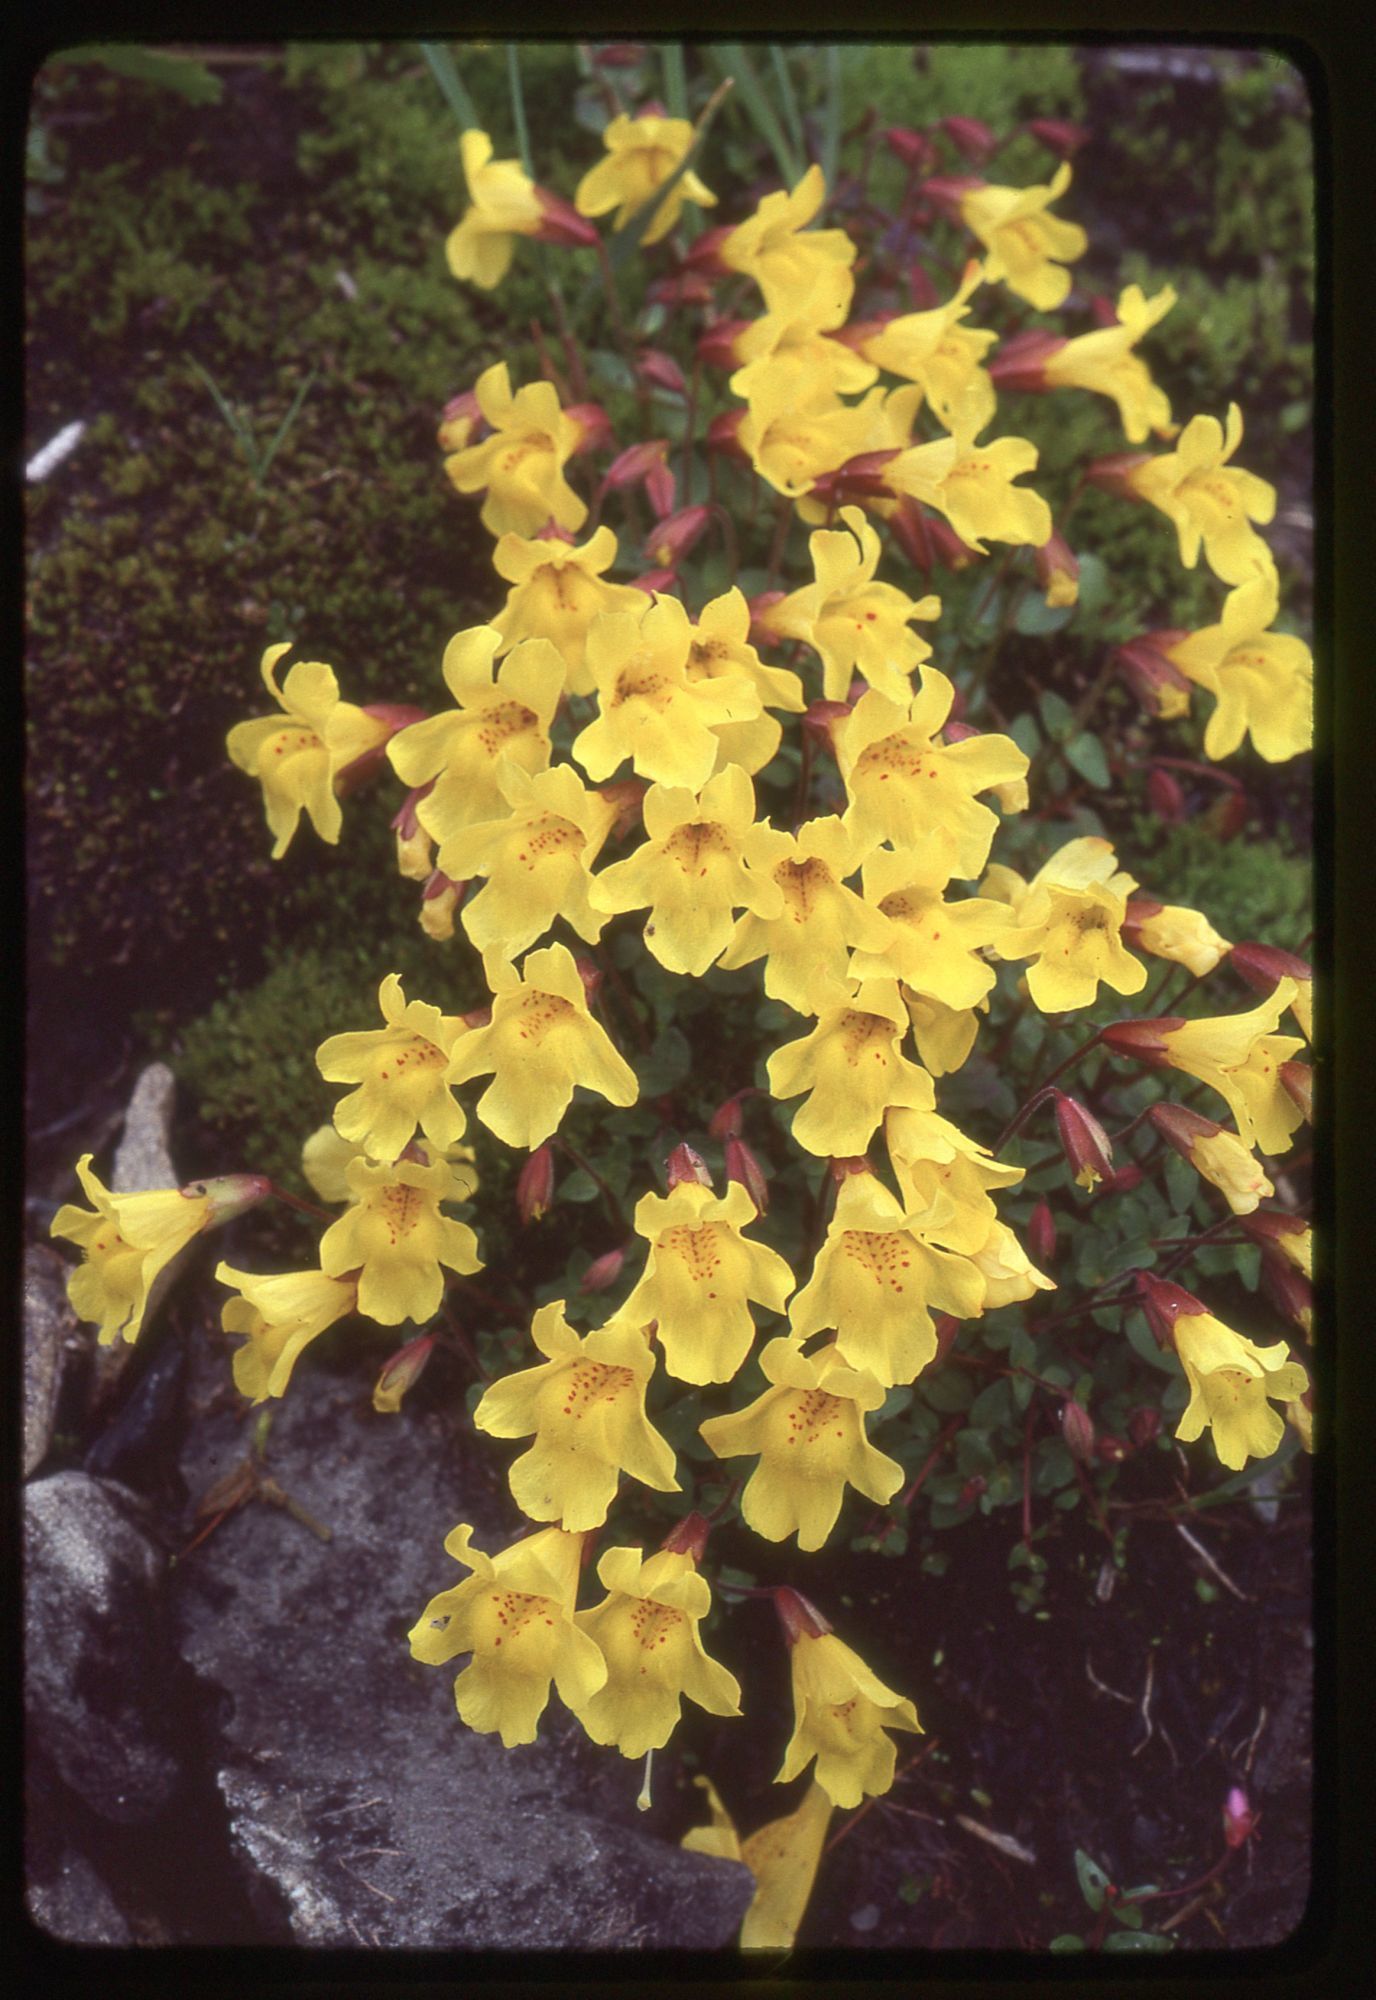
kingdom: Plantae
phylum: Tracheophyta
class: Magnoliopsida
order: Lamiales
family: Phrymaceae
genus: Erythranthe
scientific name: Erythranthe caespitosa
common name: Subalpine monkeyflower
